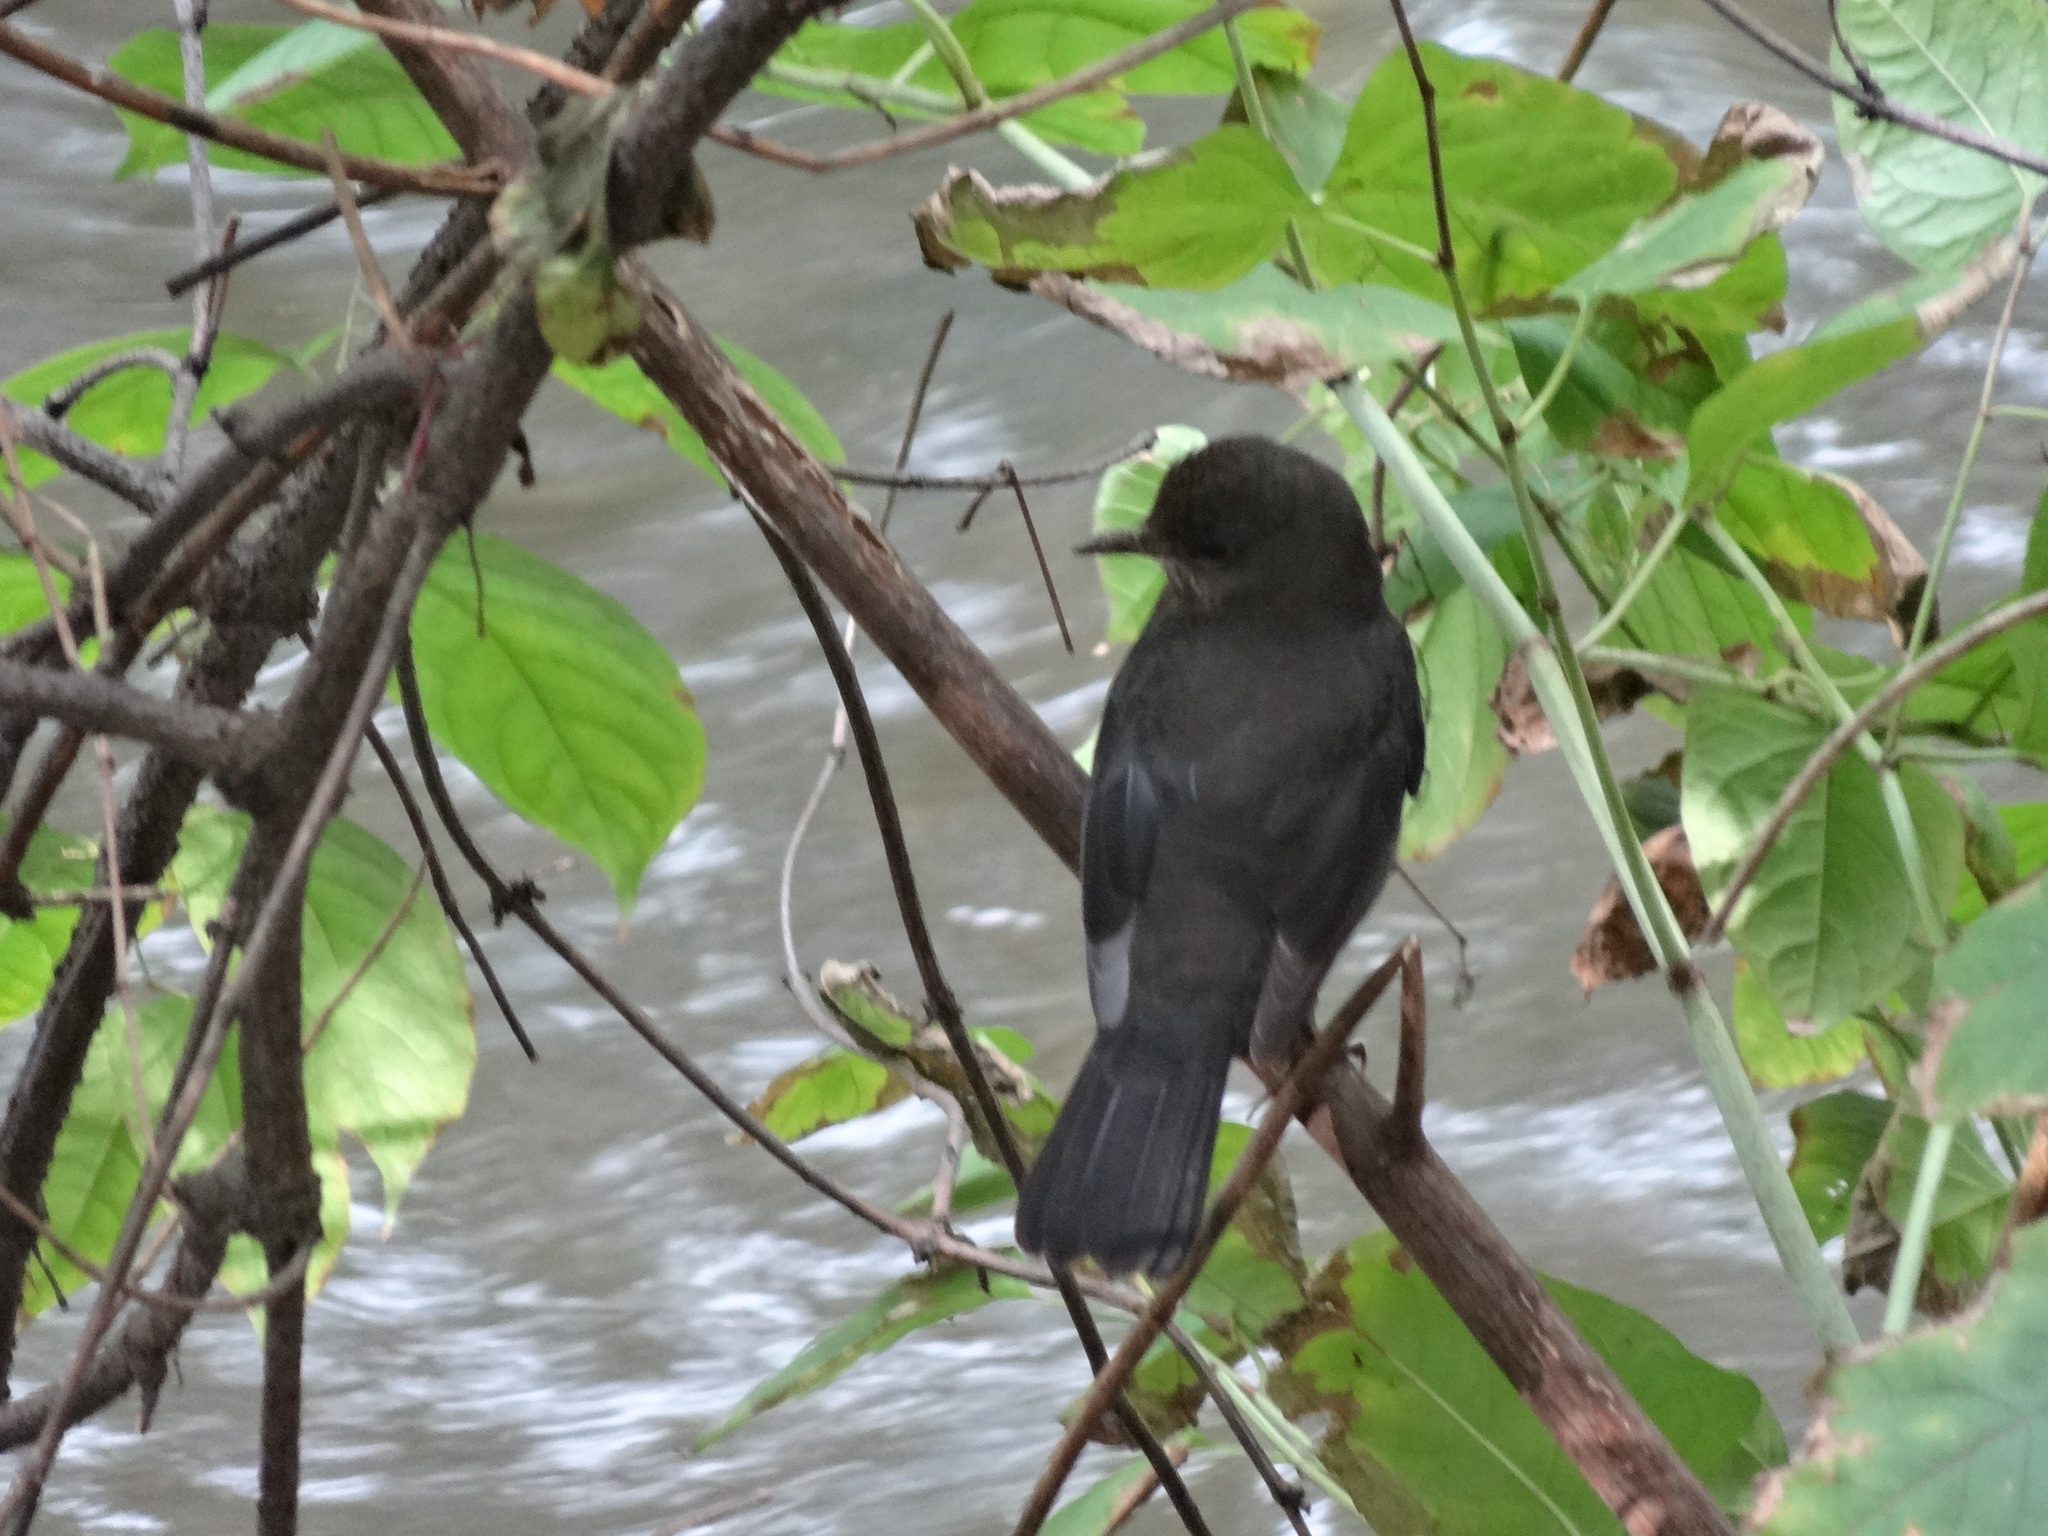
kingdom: Animalia
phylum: Chordata
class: Aves
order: Passeriformes
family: Turdidae
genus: Turdus
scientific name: Turdus merula
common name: Common blackbird
